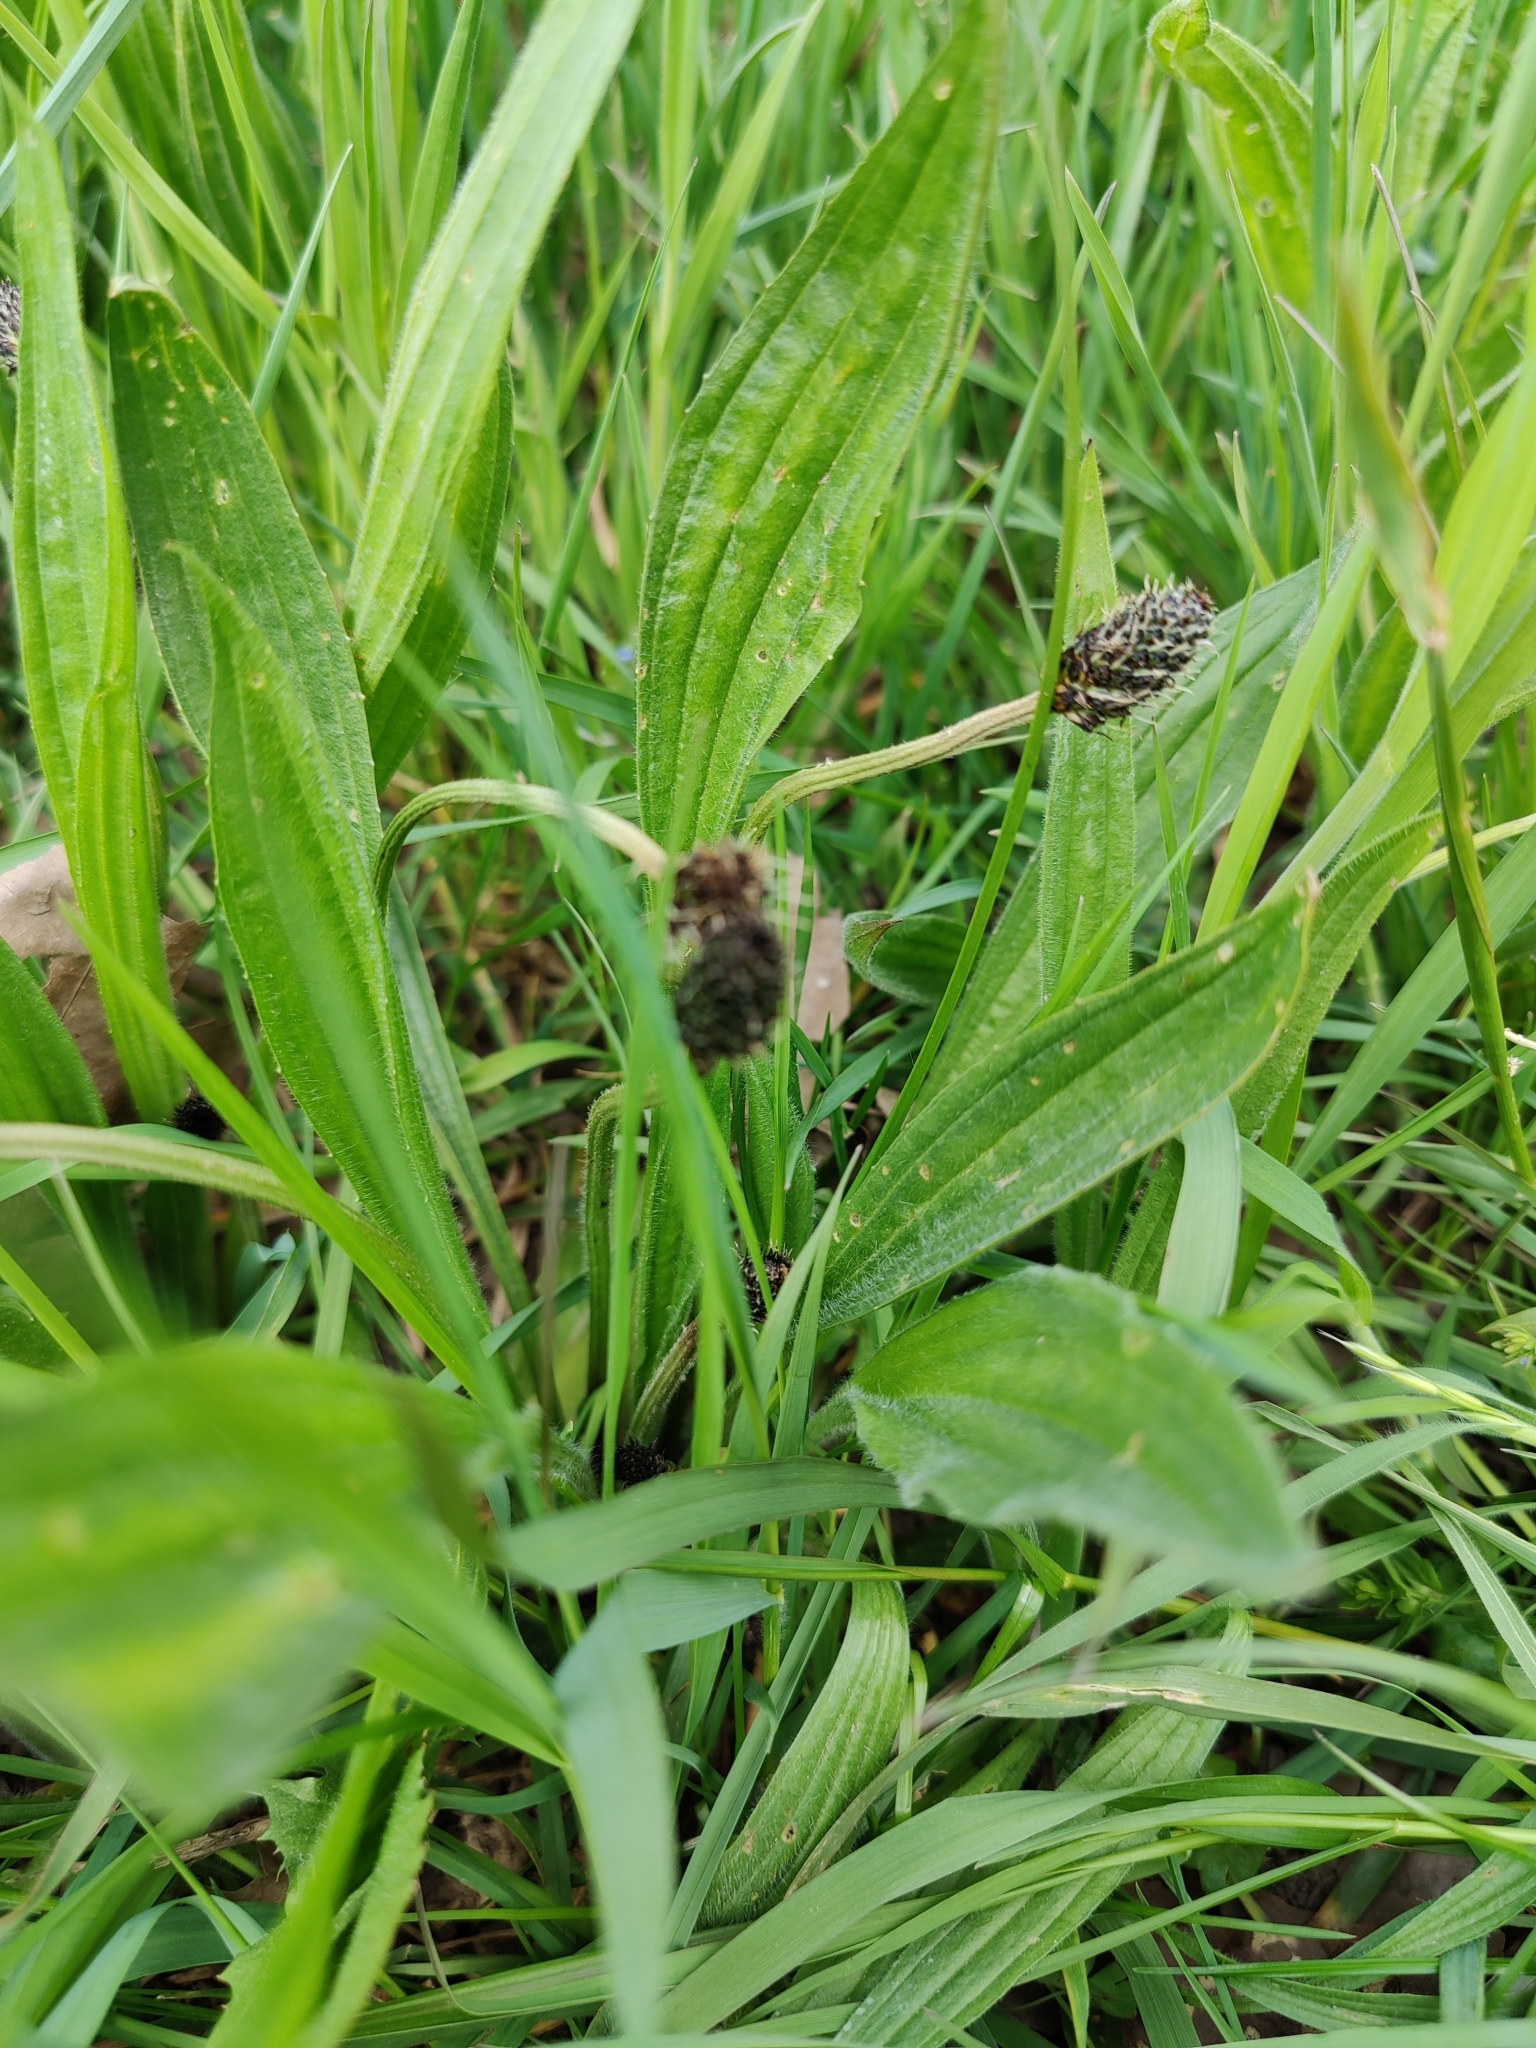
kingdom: Plantae
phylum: Tracheophyta
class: Magnoliopsida
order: Lamiales
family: Plantaginaceae
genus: Plantago
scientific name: Plantago lanceolata
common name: Ribwort plantain
